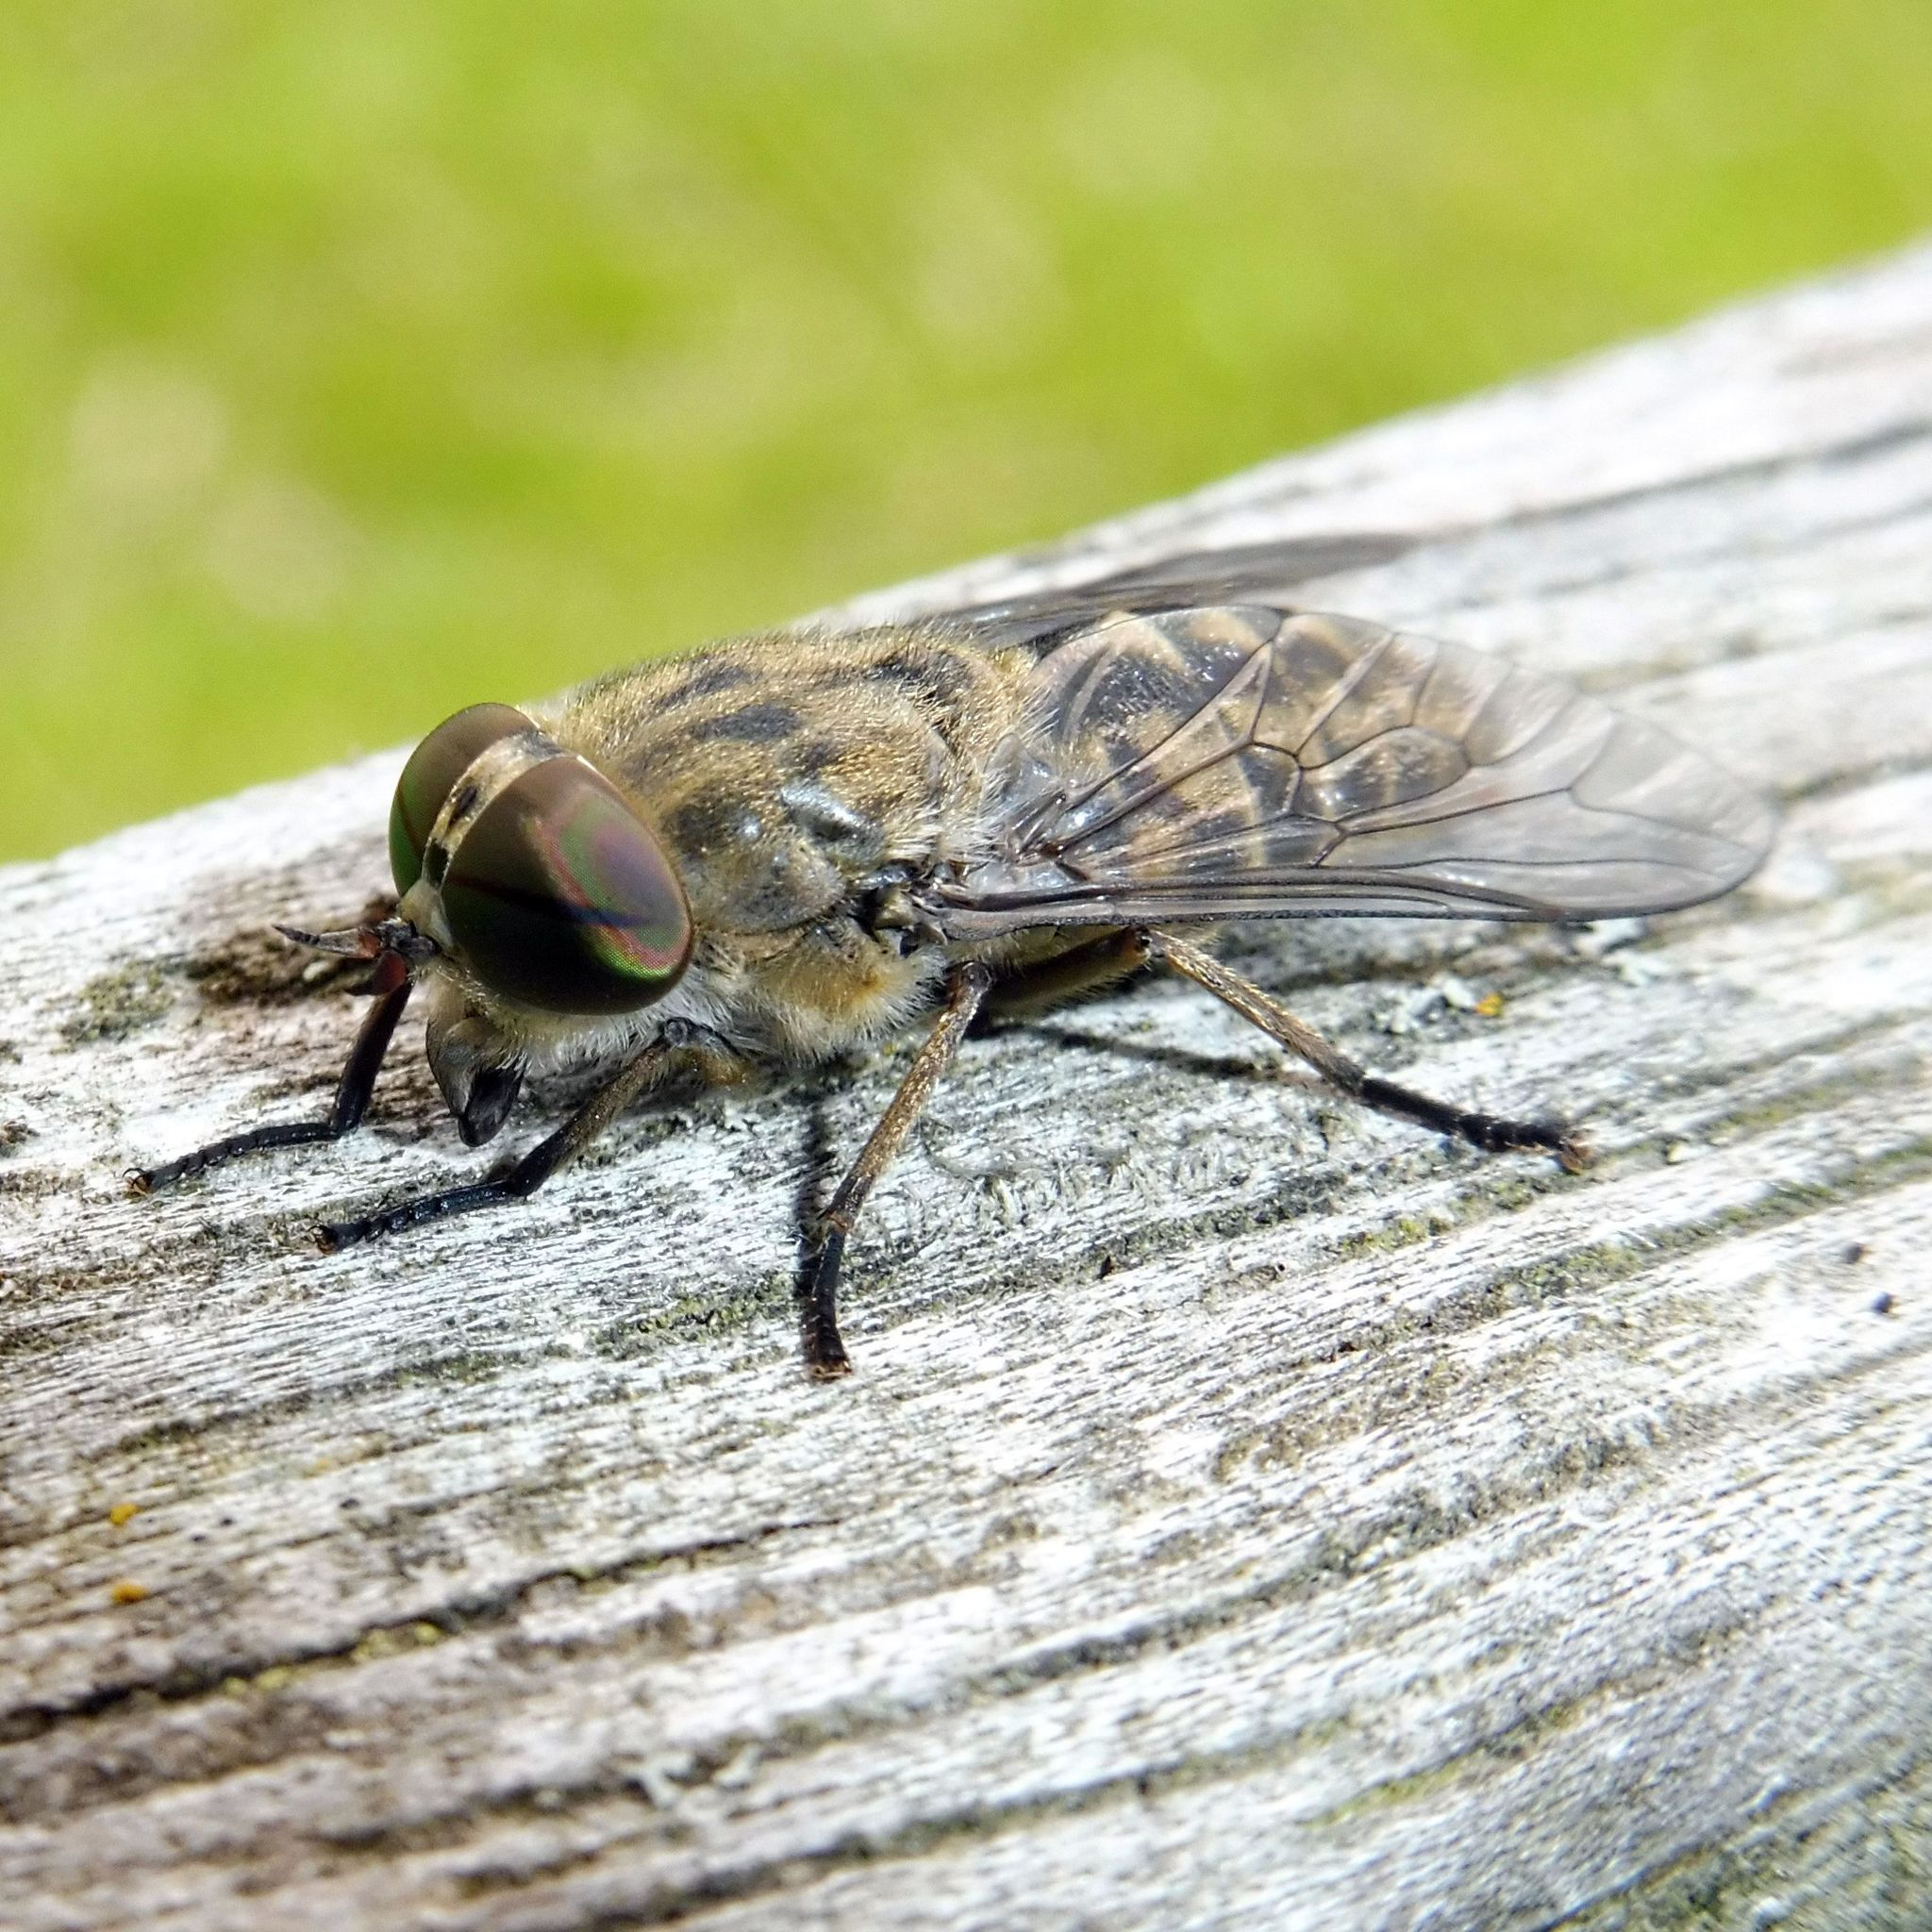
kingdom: Animalia
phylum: Arthropoda
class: Insecta
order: Diptera
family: Tabanidae
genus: Tabanus
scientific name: Tabanus bromius
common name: Band-eyed brown horsefly
